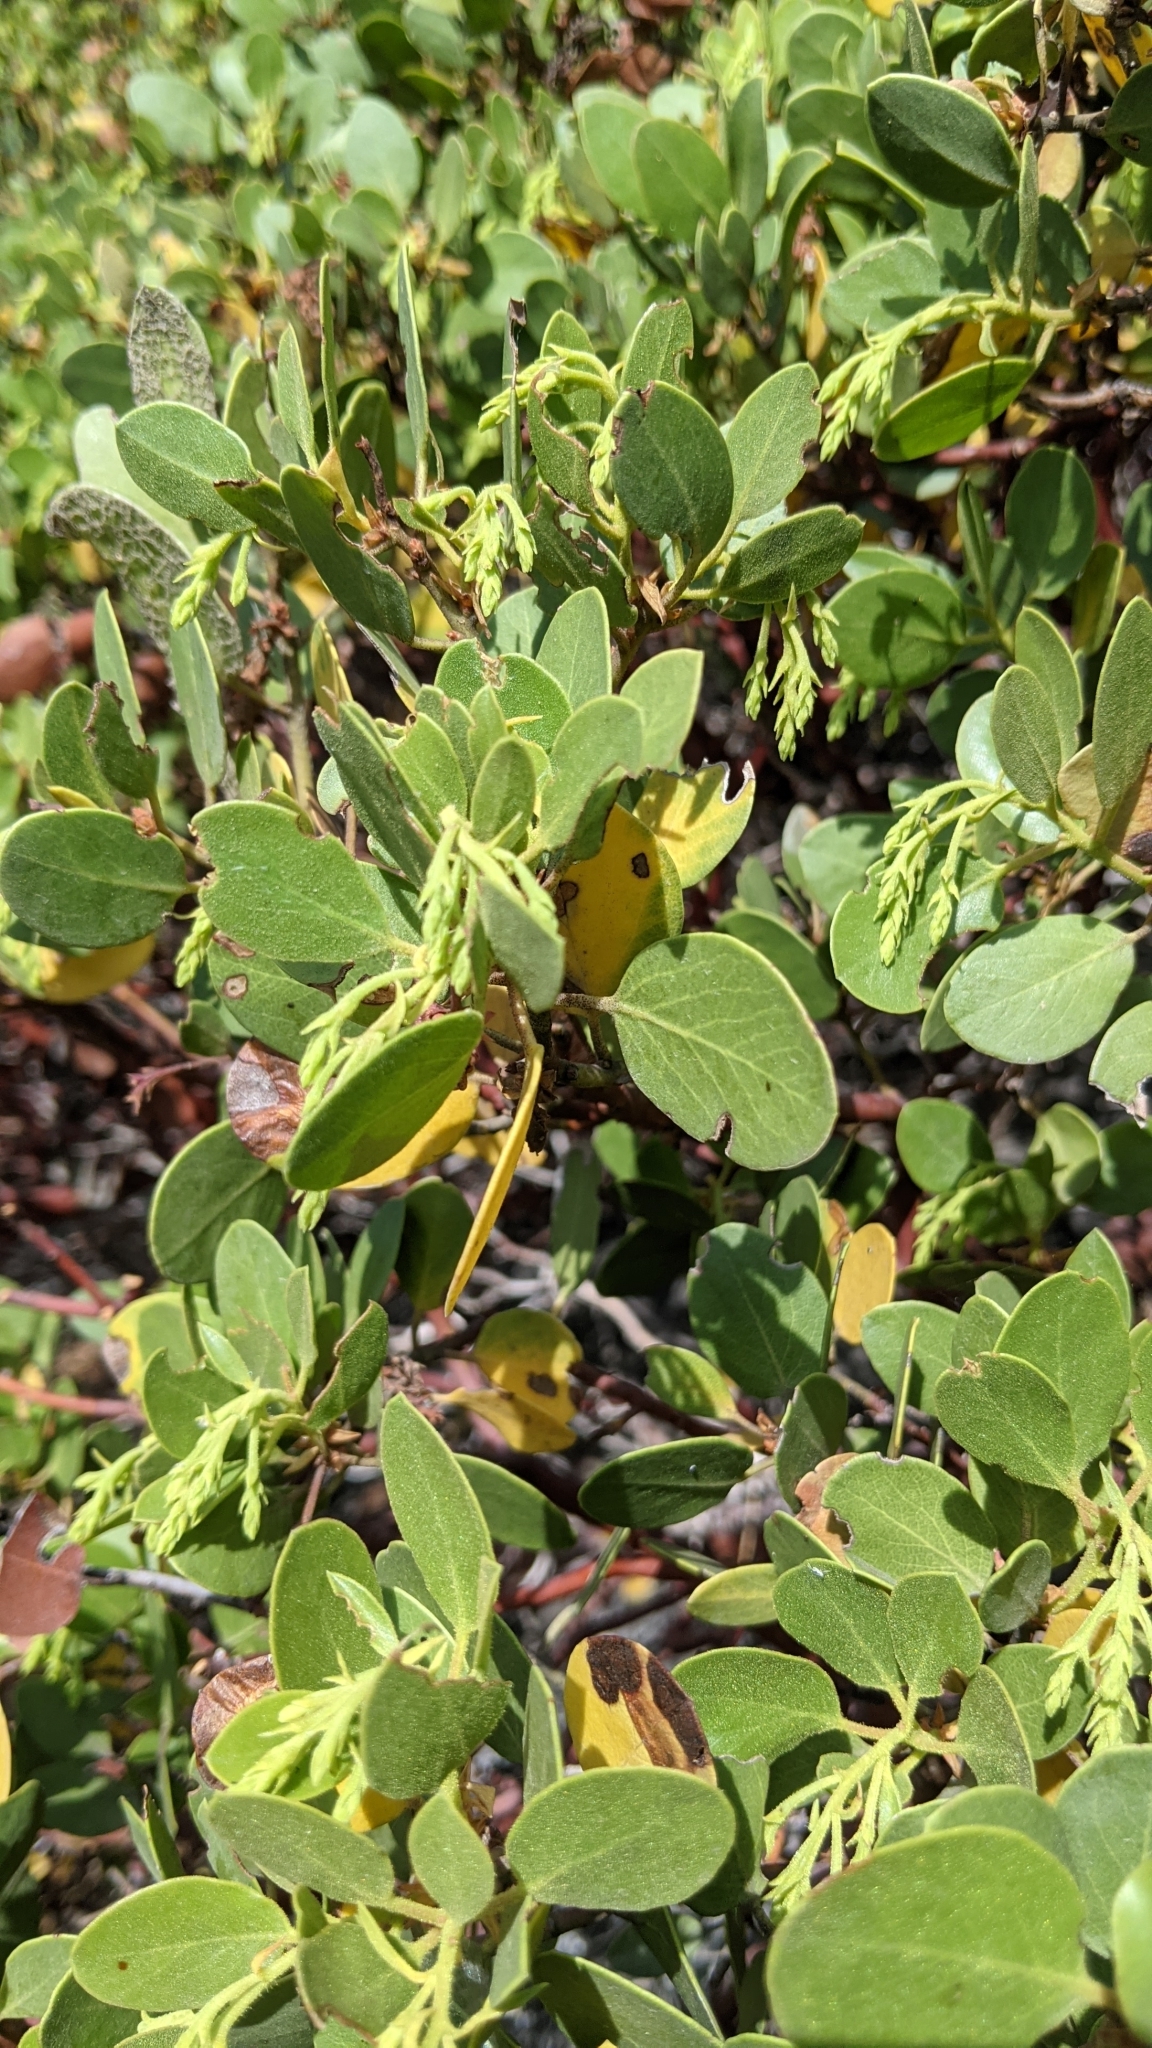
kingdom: Plantae
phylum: Tracheophyta
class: Magnoliopsida
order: Ericales
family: Ericaceae
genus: Arctostaphylos
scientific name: Arctostaphylos patula
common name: Green-leaf manzanita
